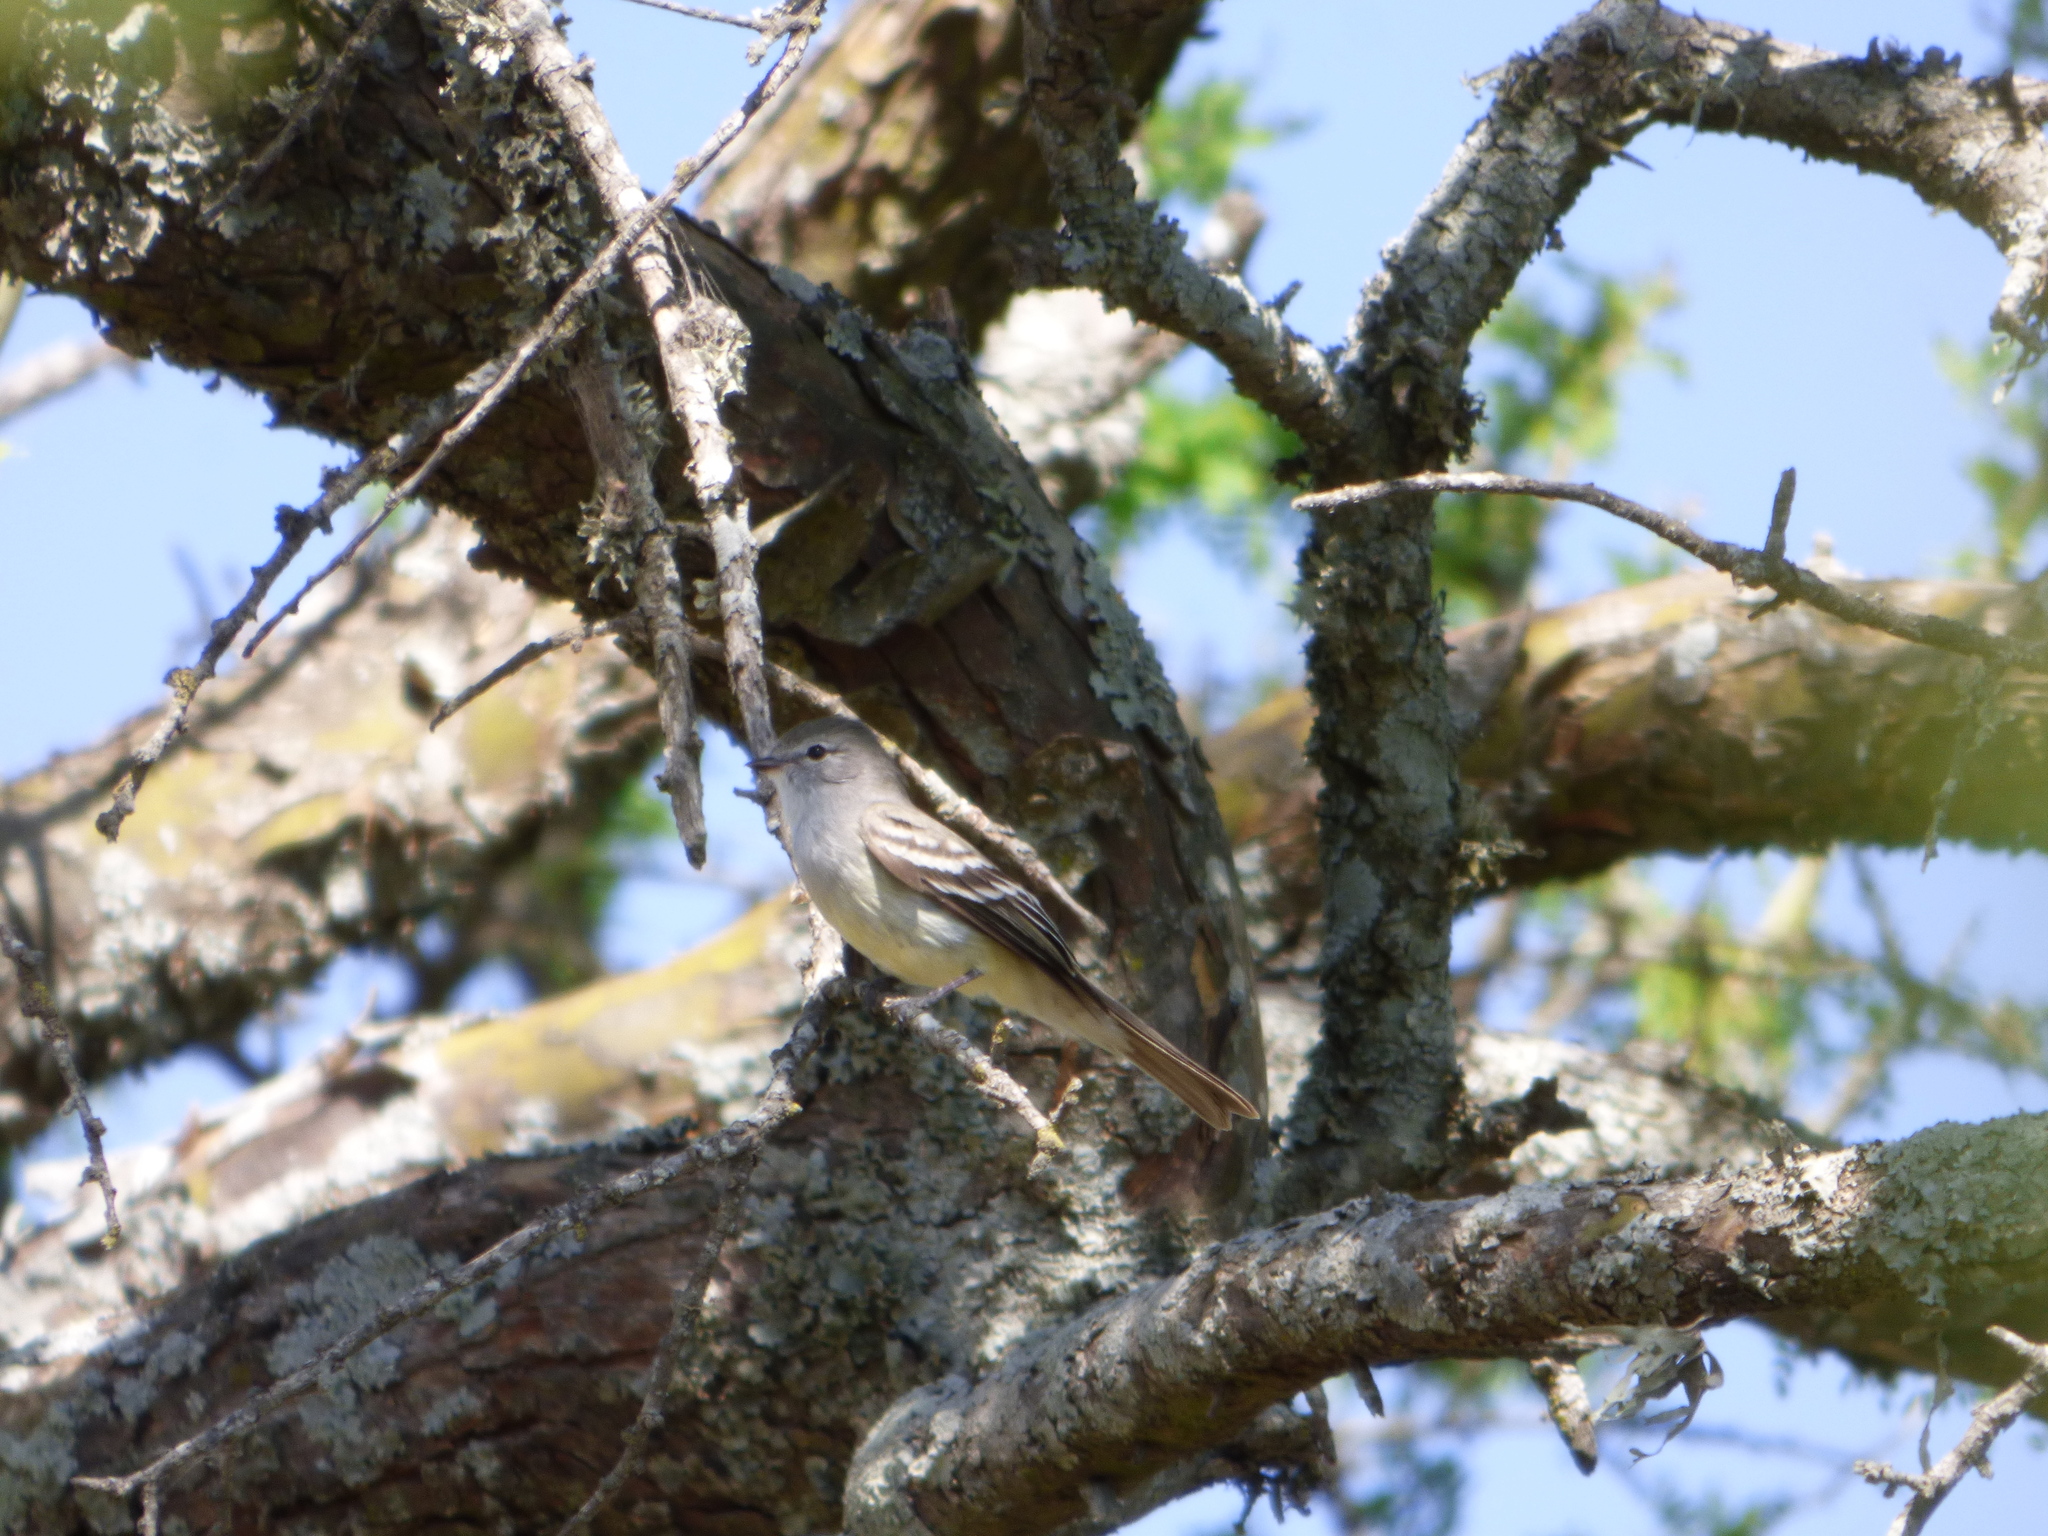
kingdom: Animalia
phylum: Chordata
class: Aves
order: Passeriformes
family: Tyrannidae
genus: Sublegatus
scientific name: Sublegatus modestus
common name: Southern scrub flycatcher
